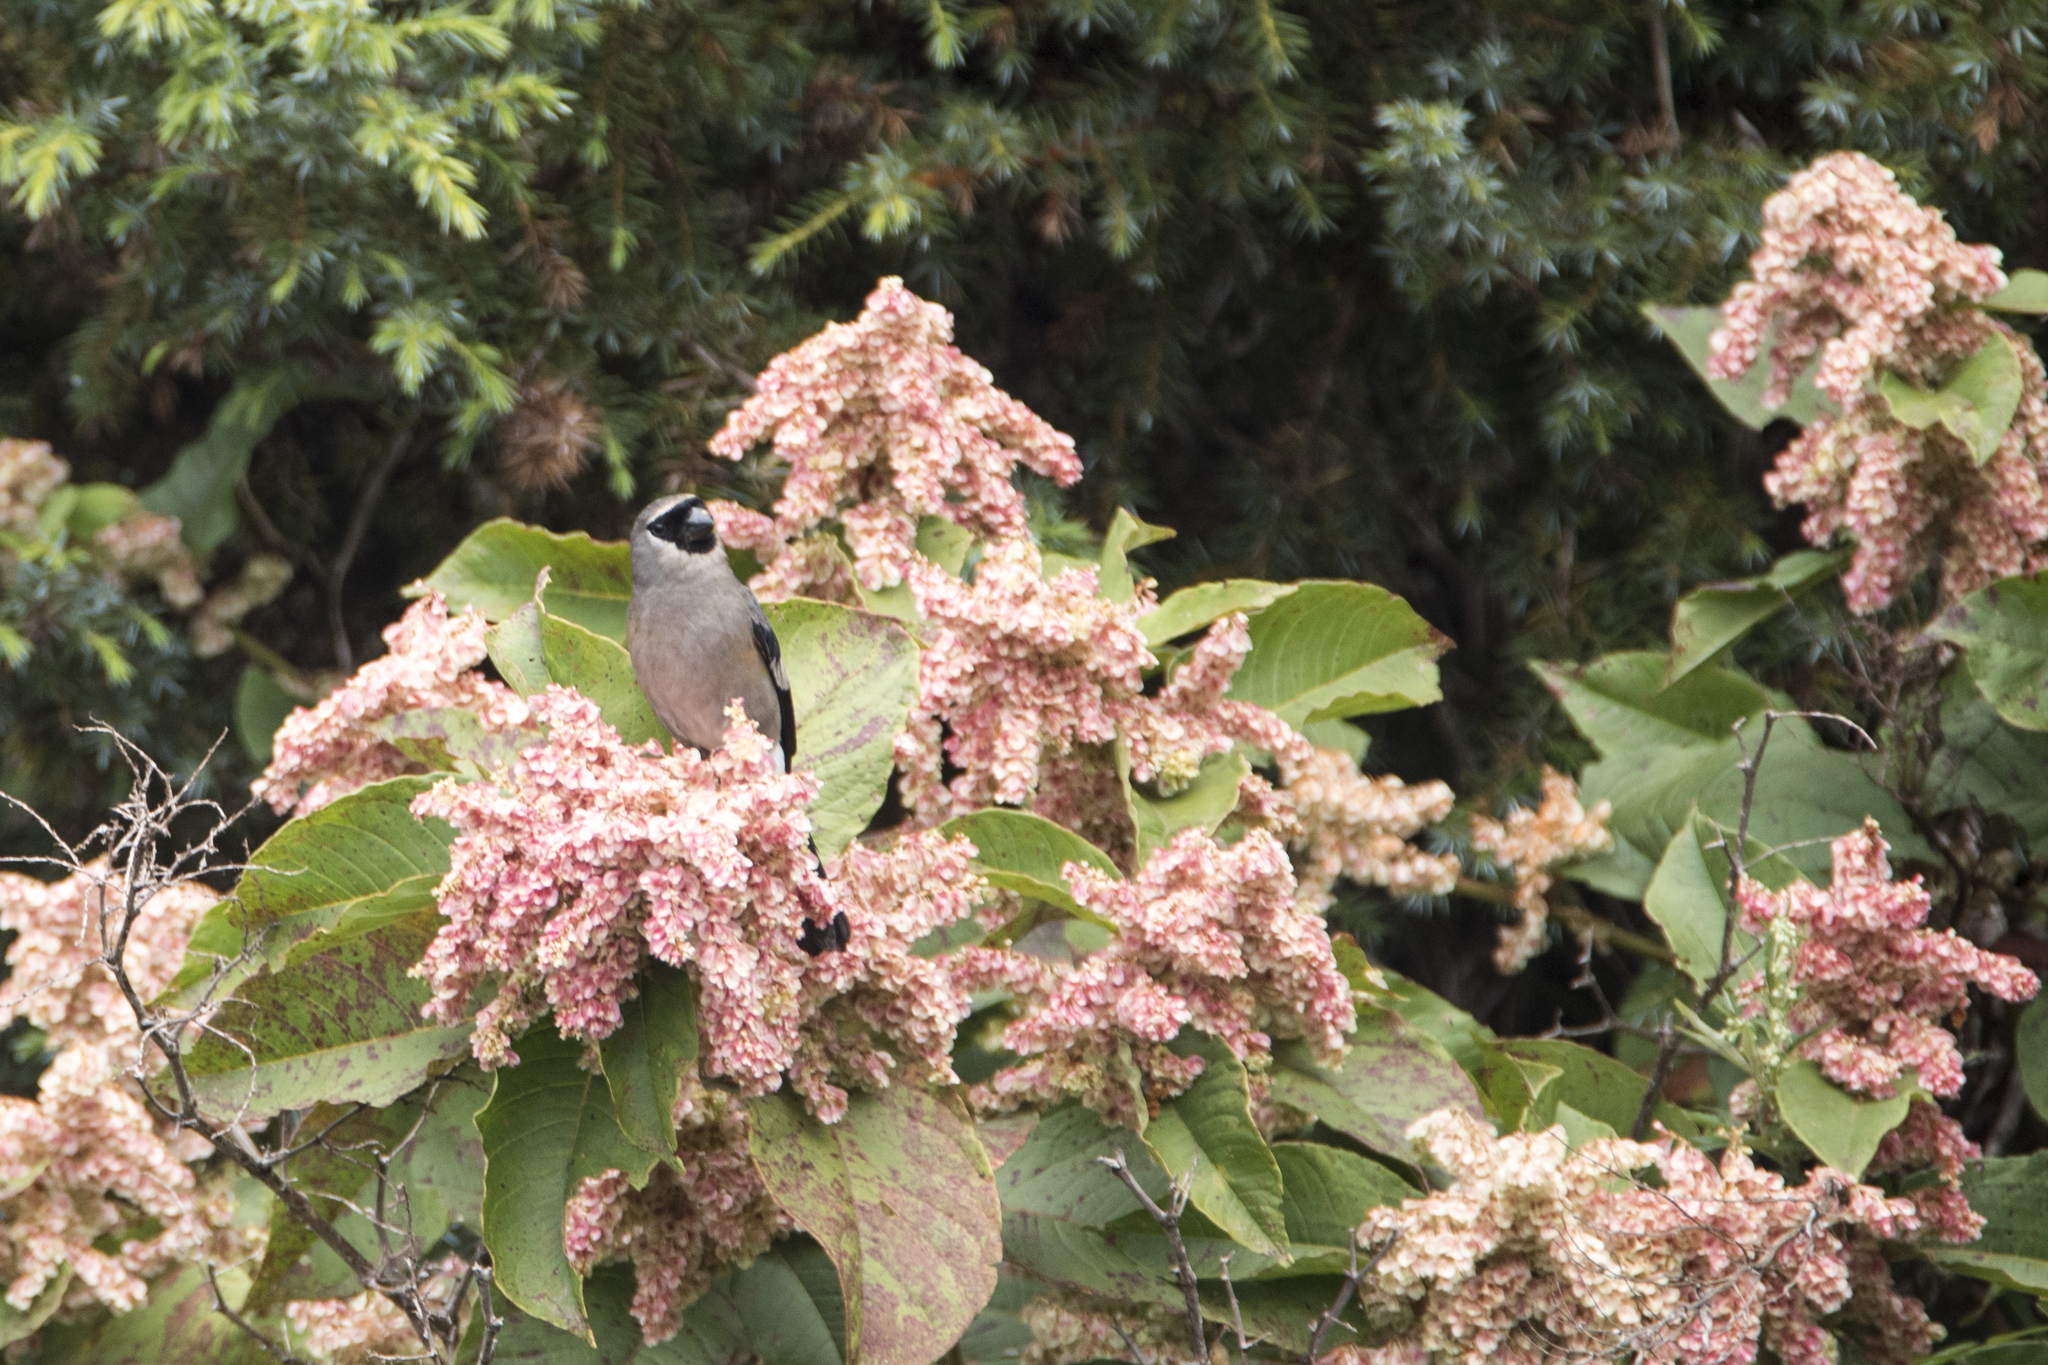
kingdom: Animalia
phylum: Chordata
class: Aves
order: Passeriformes
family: Fringillidae
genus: Pyrrhula
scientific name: Pyrrhula owstoni
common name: Taiwan bullfinch
